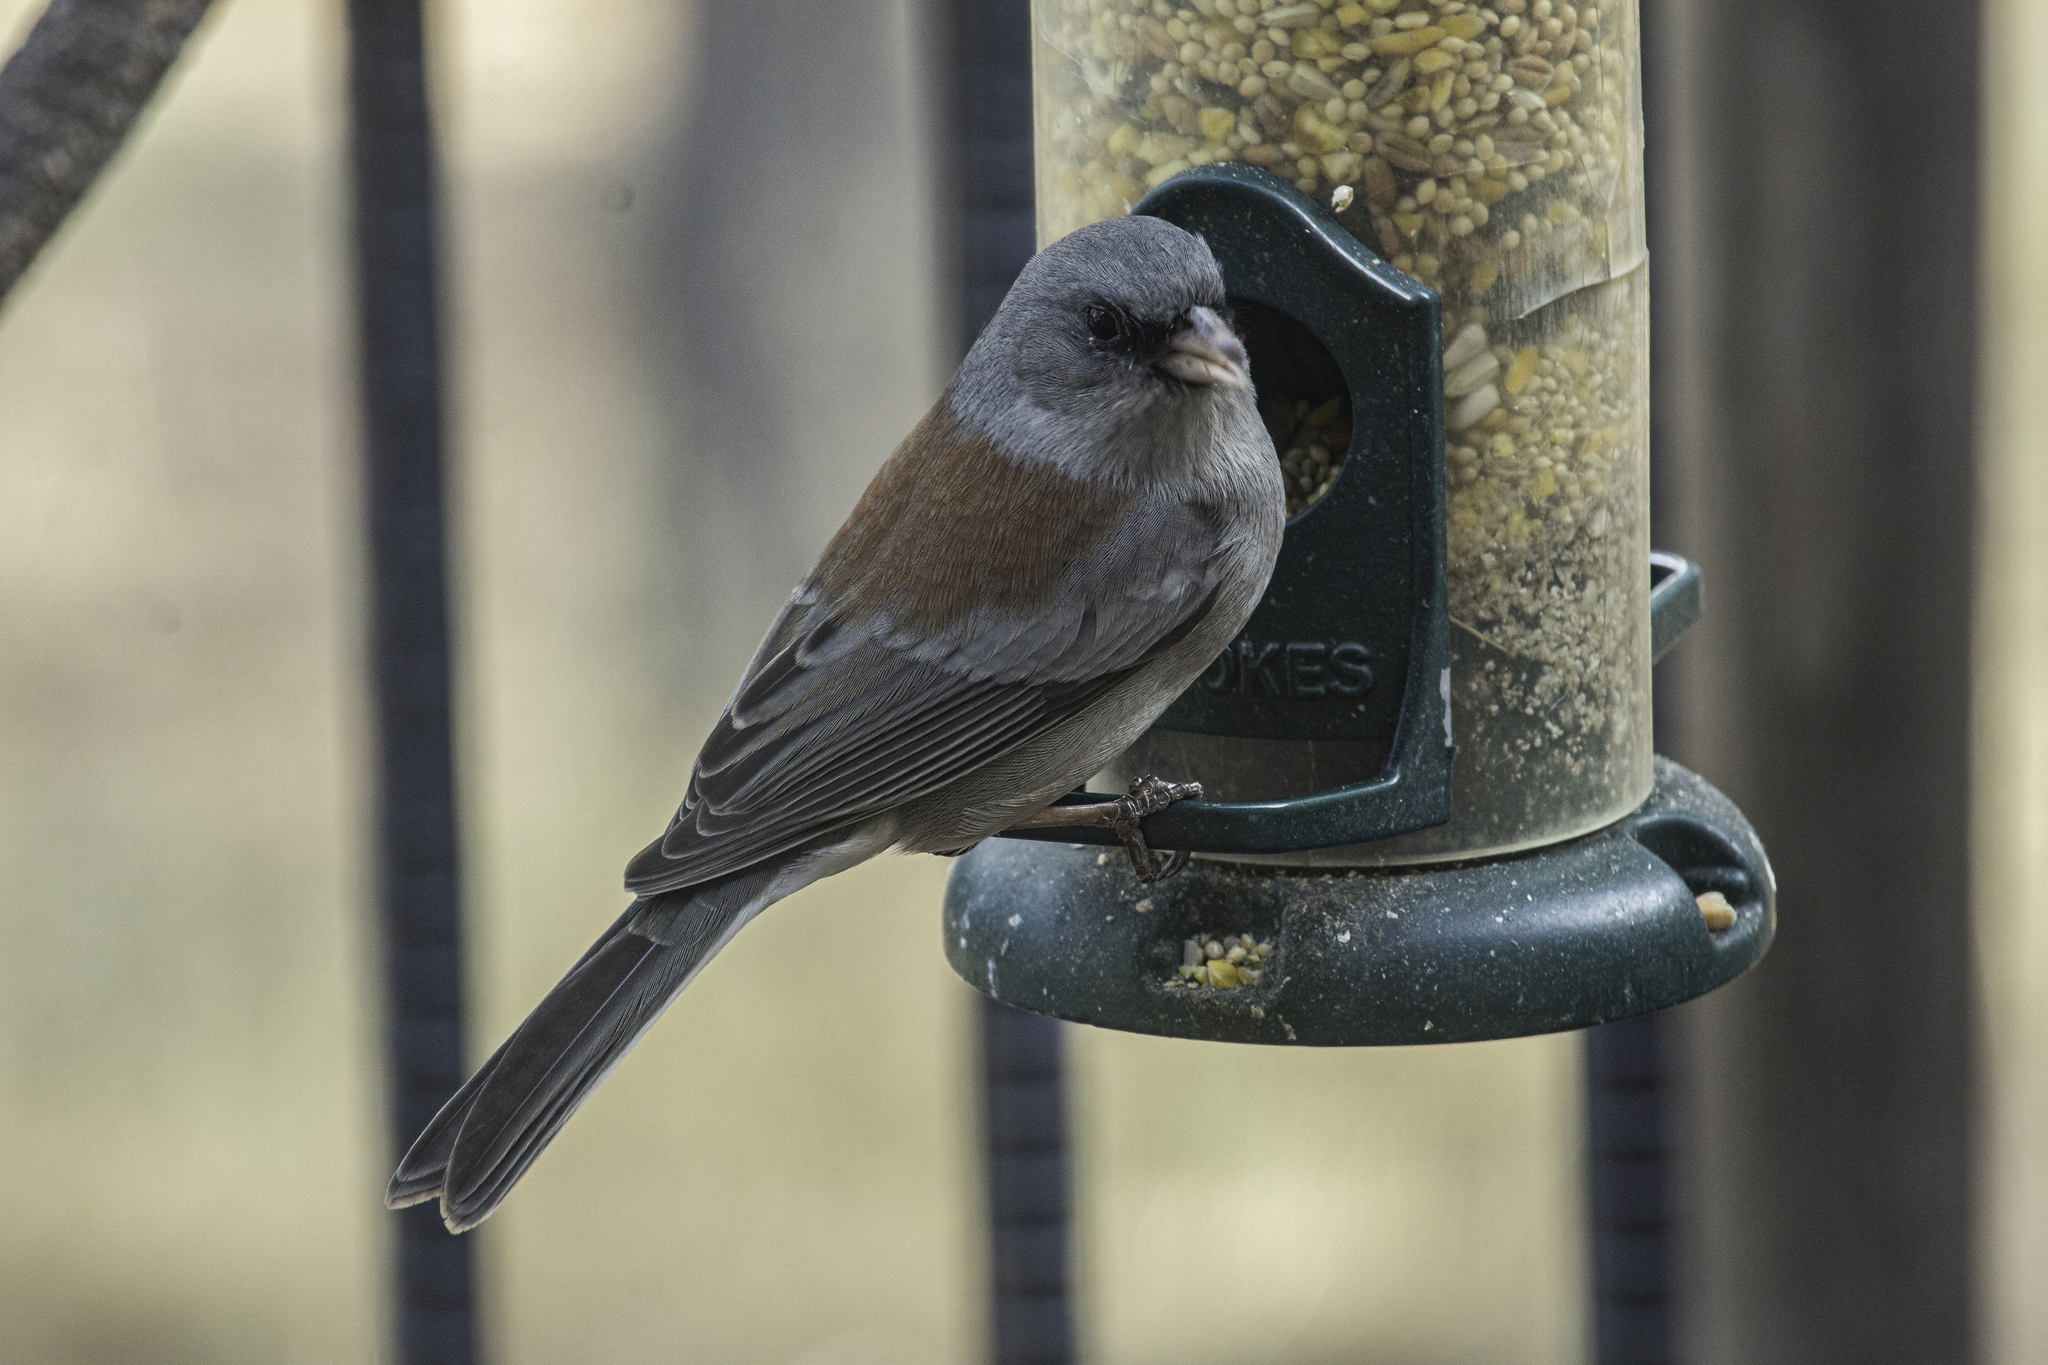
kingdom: Animalia
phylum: Chordata
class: Aves
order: Passeriformes
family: Passerellidae
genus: Junco
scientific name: Junco hyemalis
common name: Dark-eyed junco
